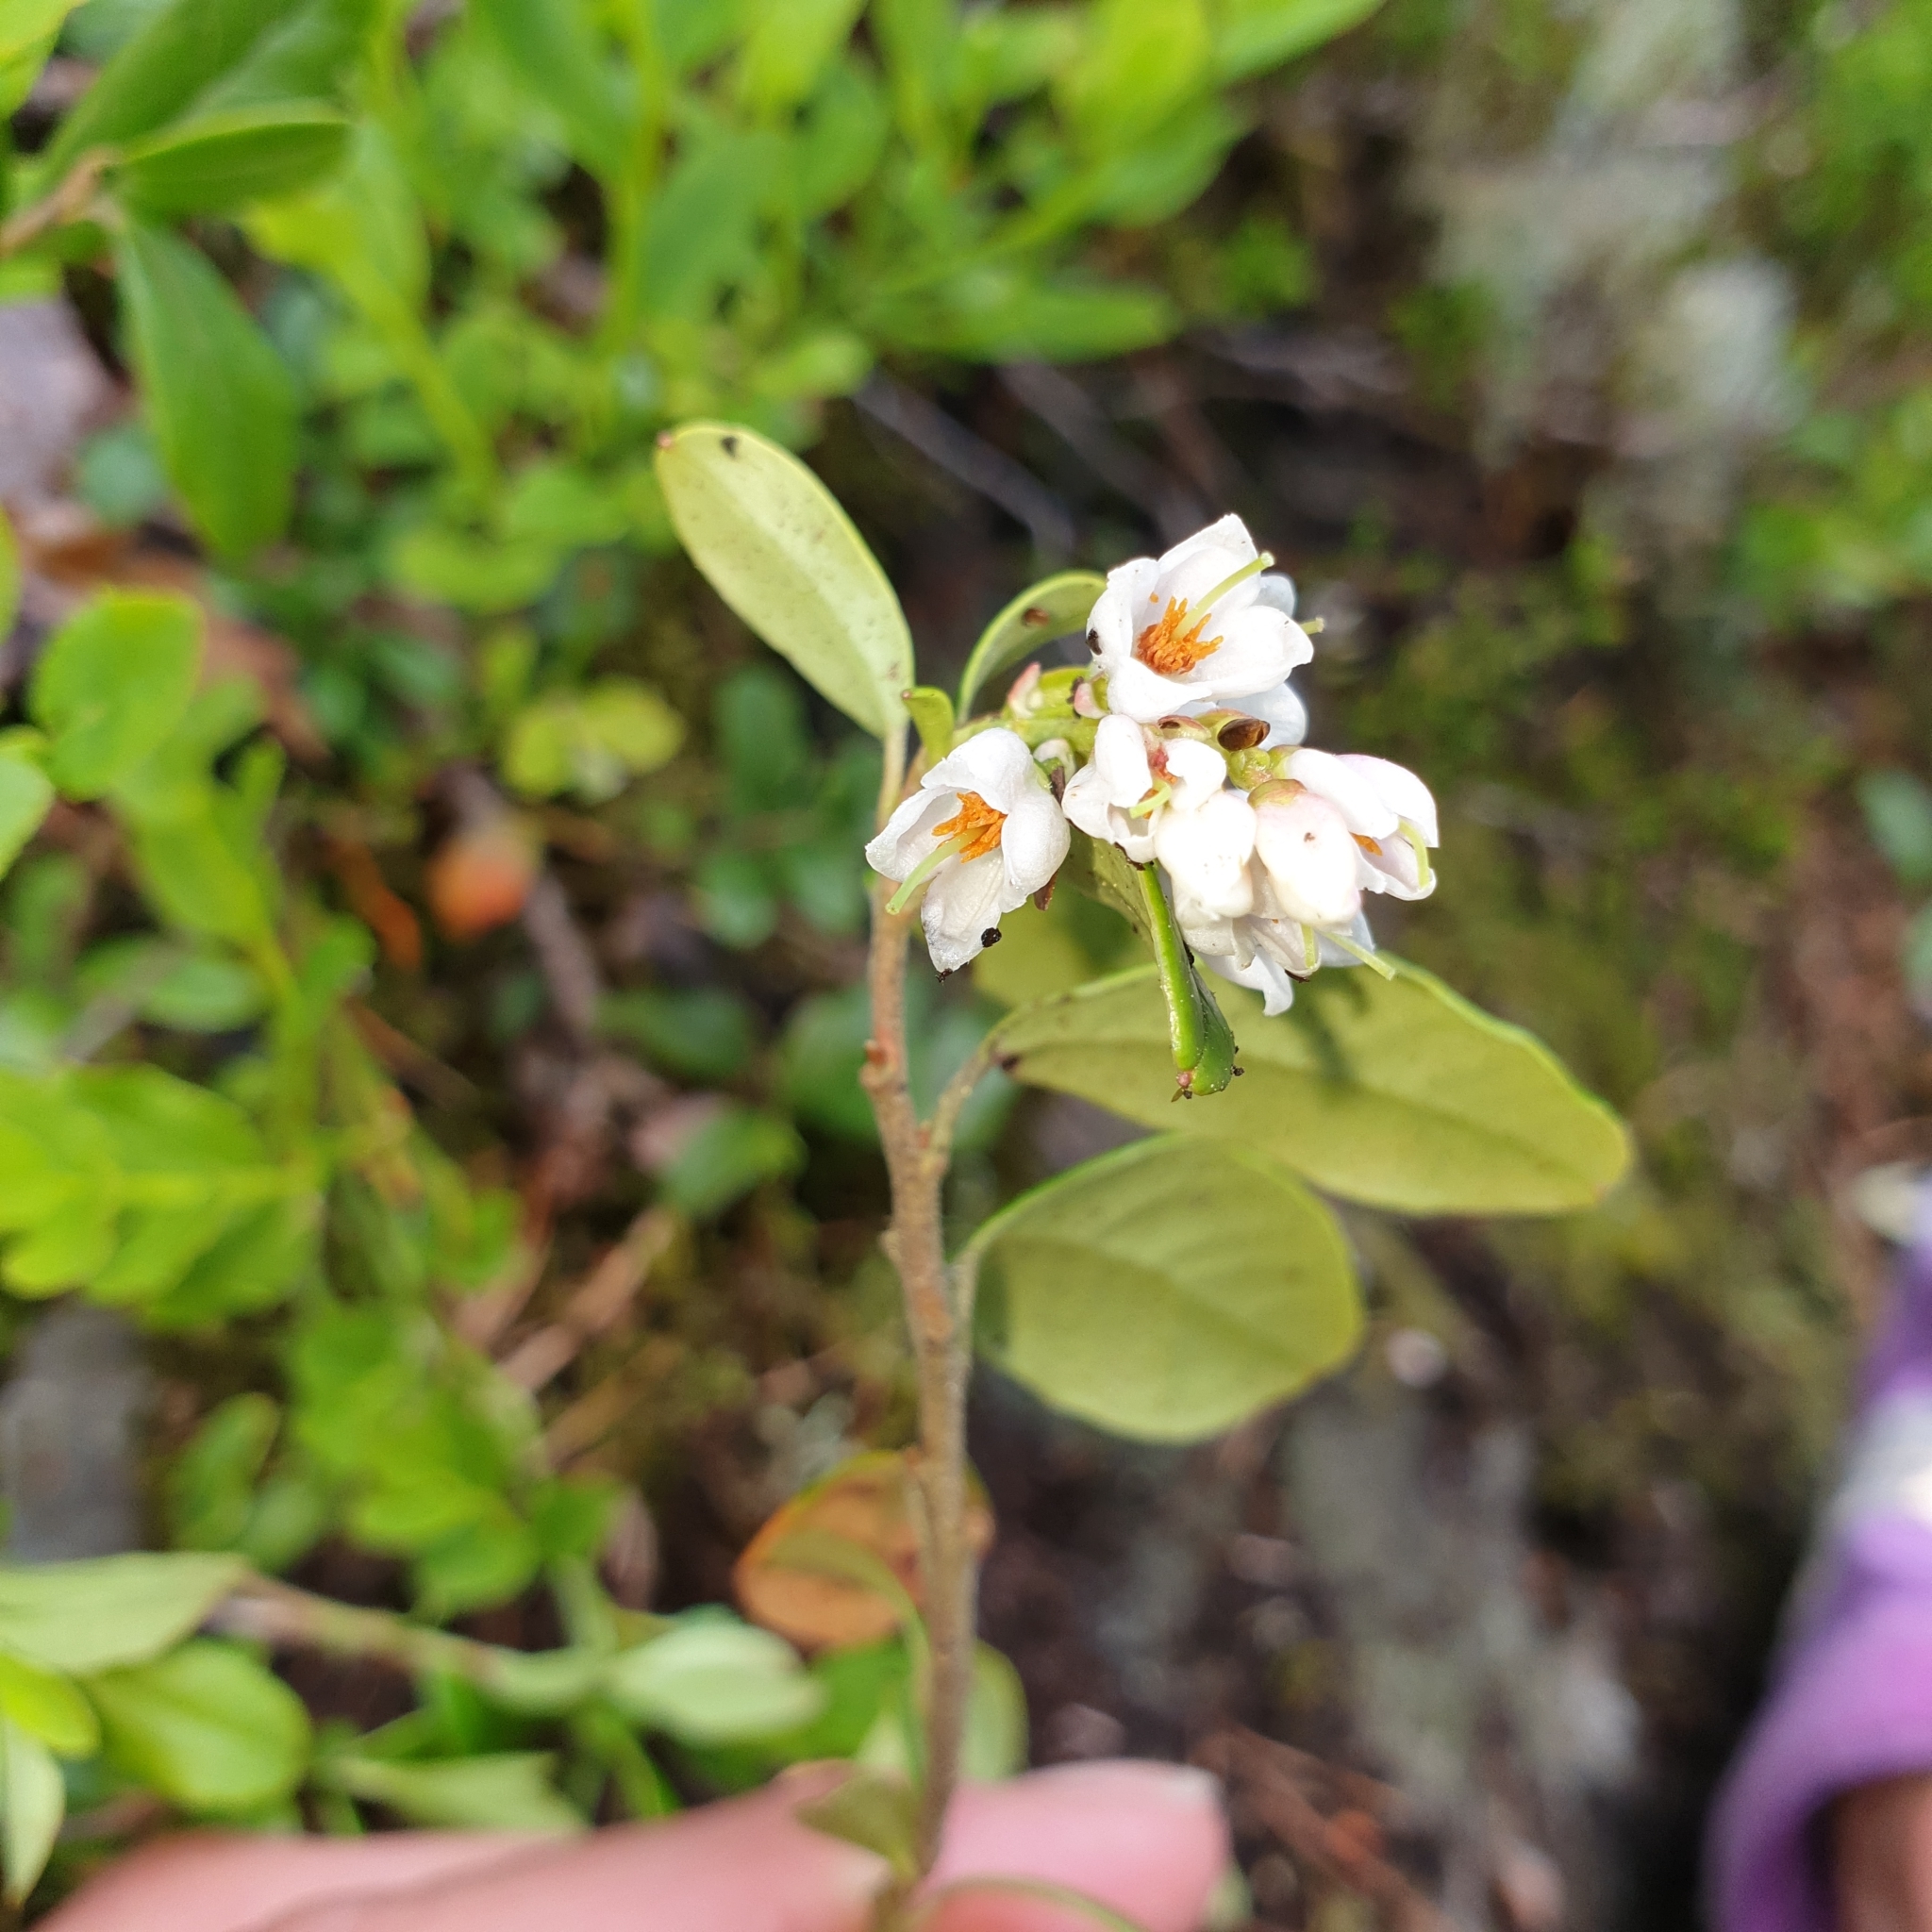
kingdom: Plantae
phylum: Tracheophyta
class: Magnoliopsida
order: Ericales
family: Ericaceae
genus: Vaccinium
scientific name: Vaccinium vitis-idaea
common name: Cowberry
